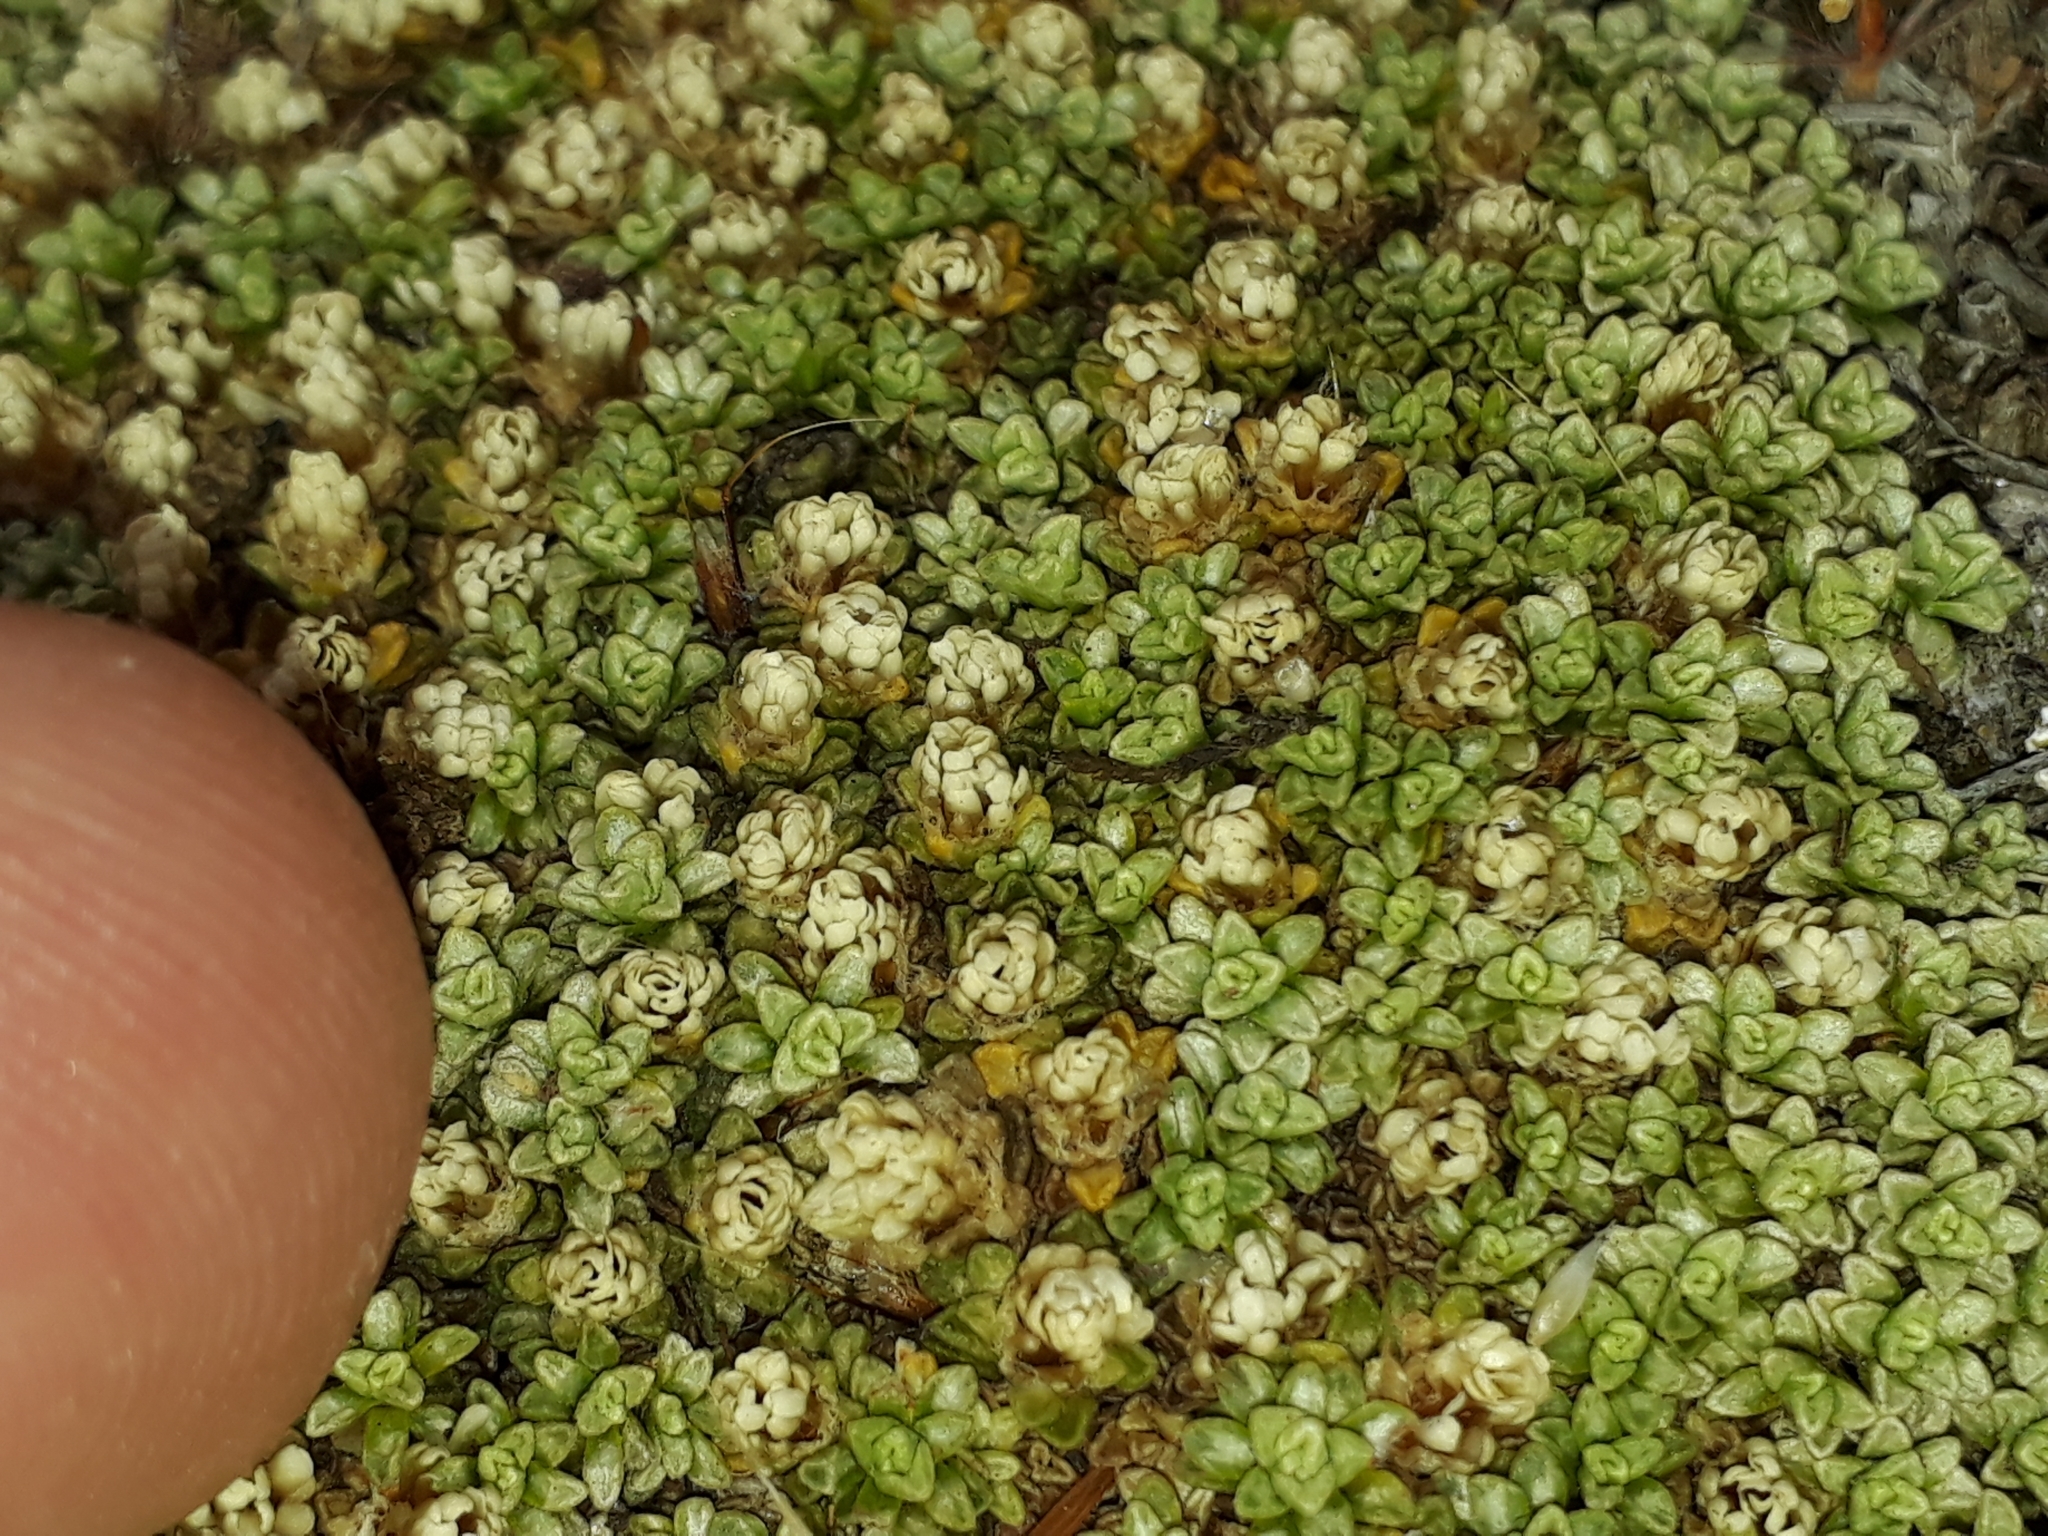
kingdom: Plantae
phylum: Tracheophyta
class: Magnoliopsida
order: Asterales
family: Asteraceae
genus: Raoulia
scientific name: Raoulia parkii
